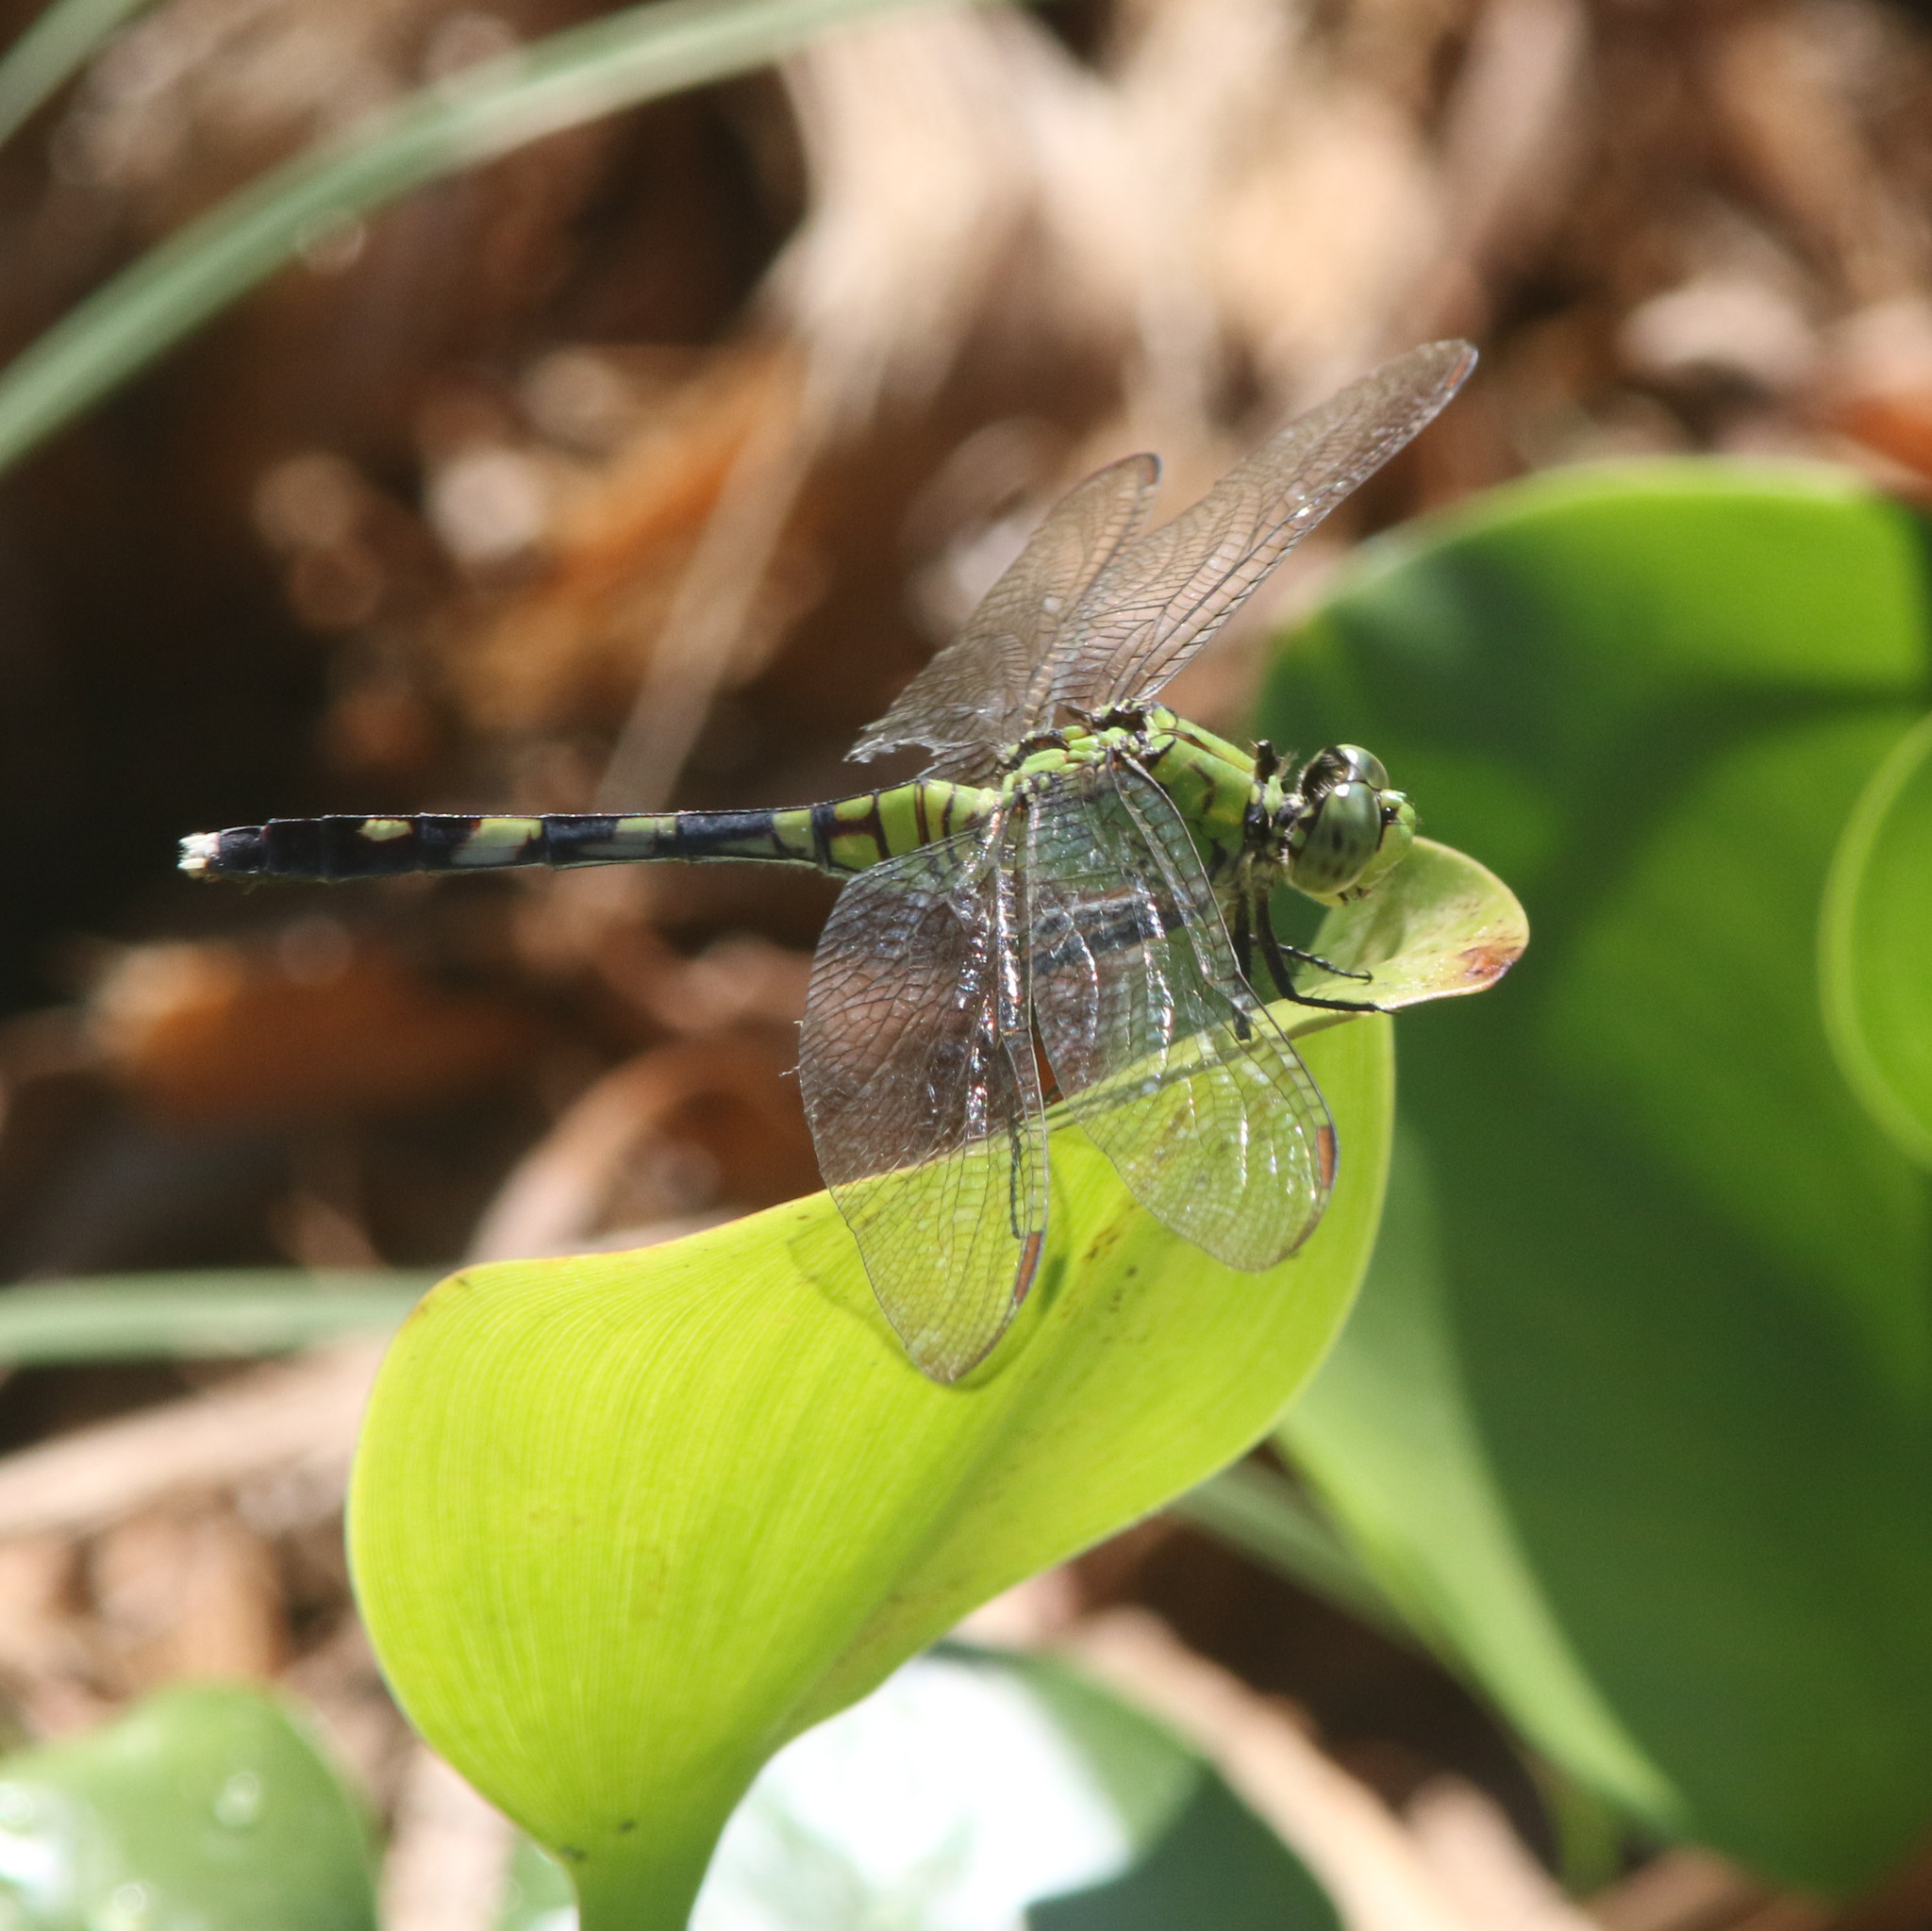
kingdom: Animalia
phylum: Arthropoda
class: Insecta
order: Odonata
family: Libellulidae
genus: Erythemis
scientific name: Erythemis simplicicollis
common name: Eastern pondhawk
